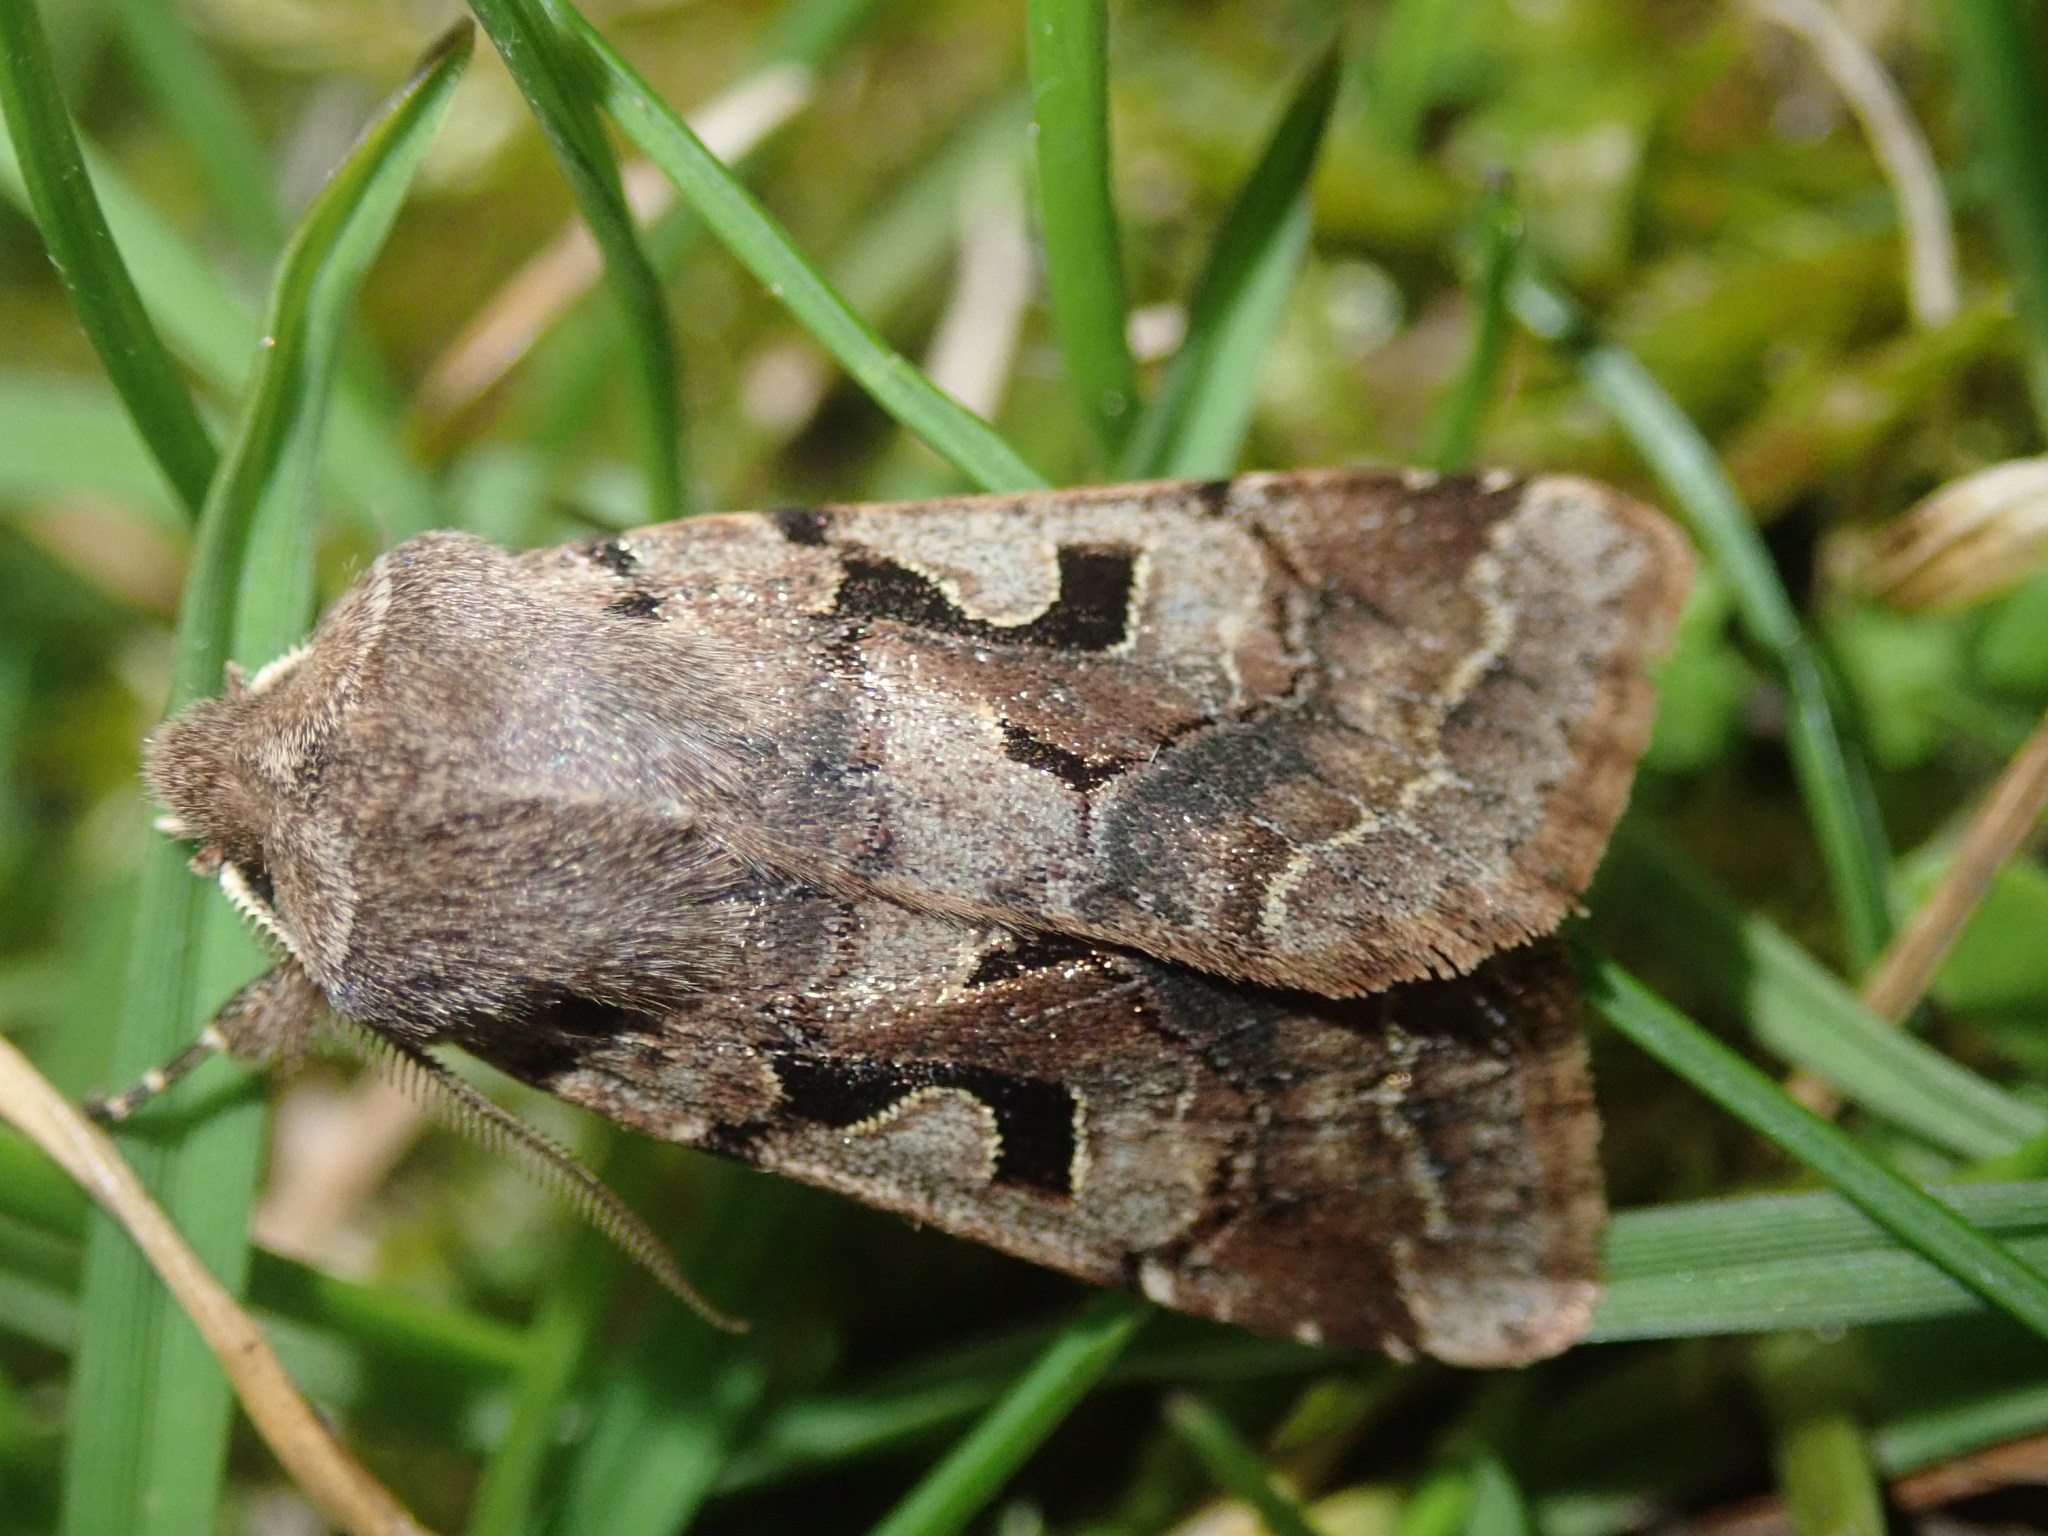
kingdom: Animalia
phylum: Arthropoda
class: Insecta
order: Lepidoptera
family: Noctuidae
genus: Orthosia
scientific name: Orthosia gothica
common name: Hebrew character
